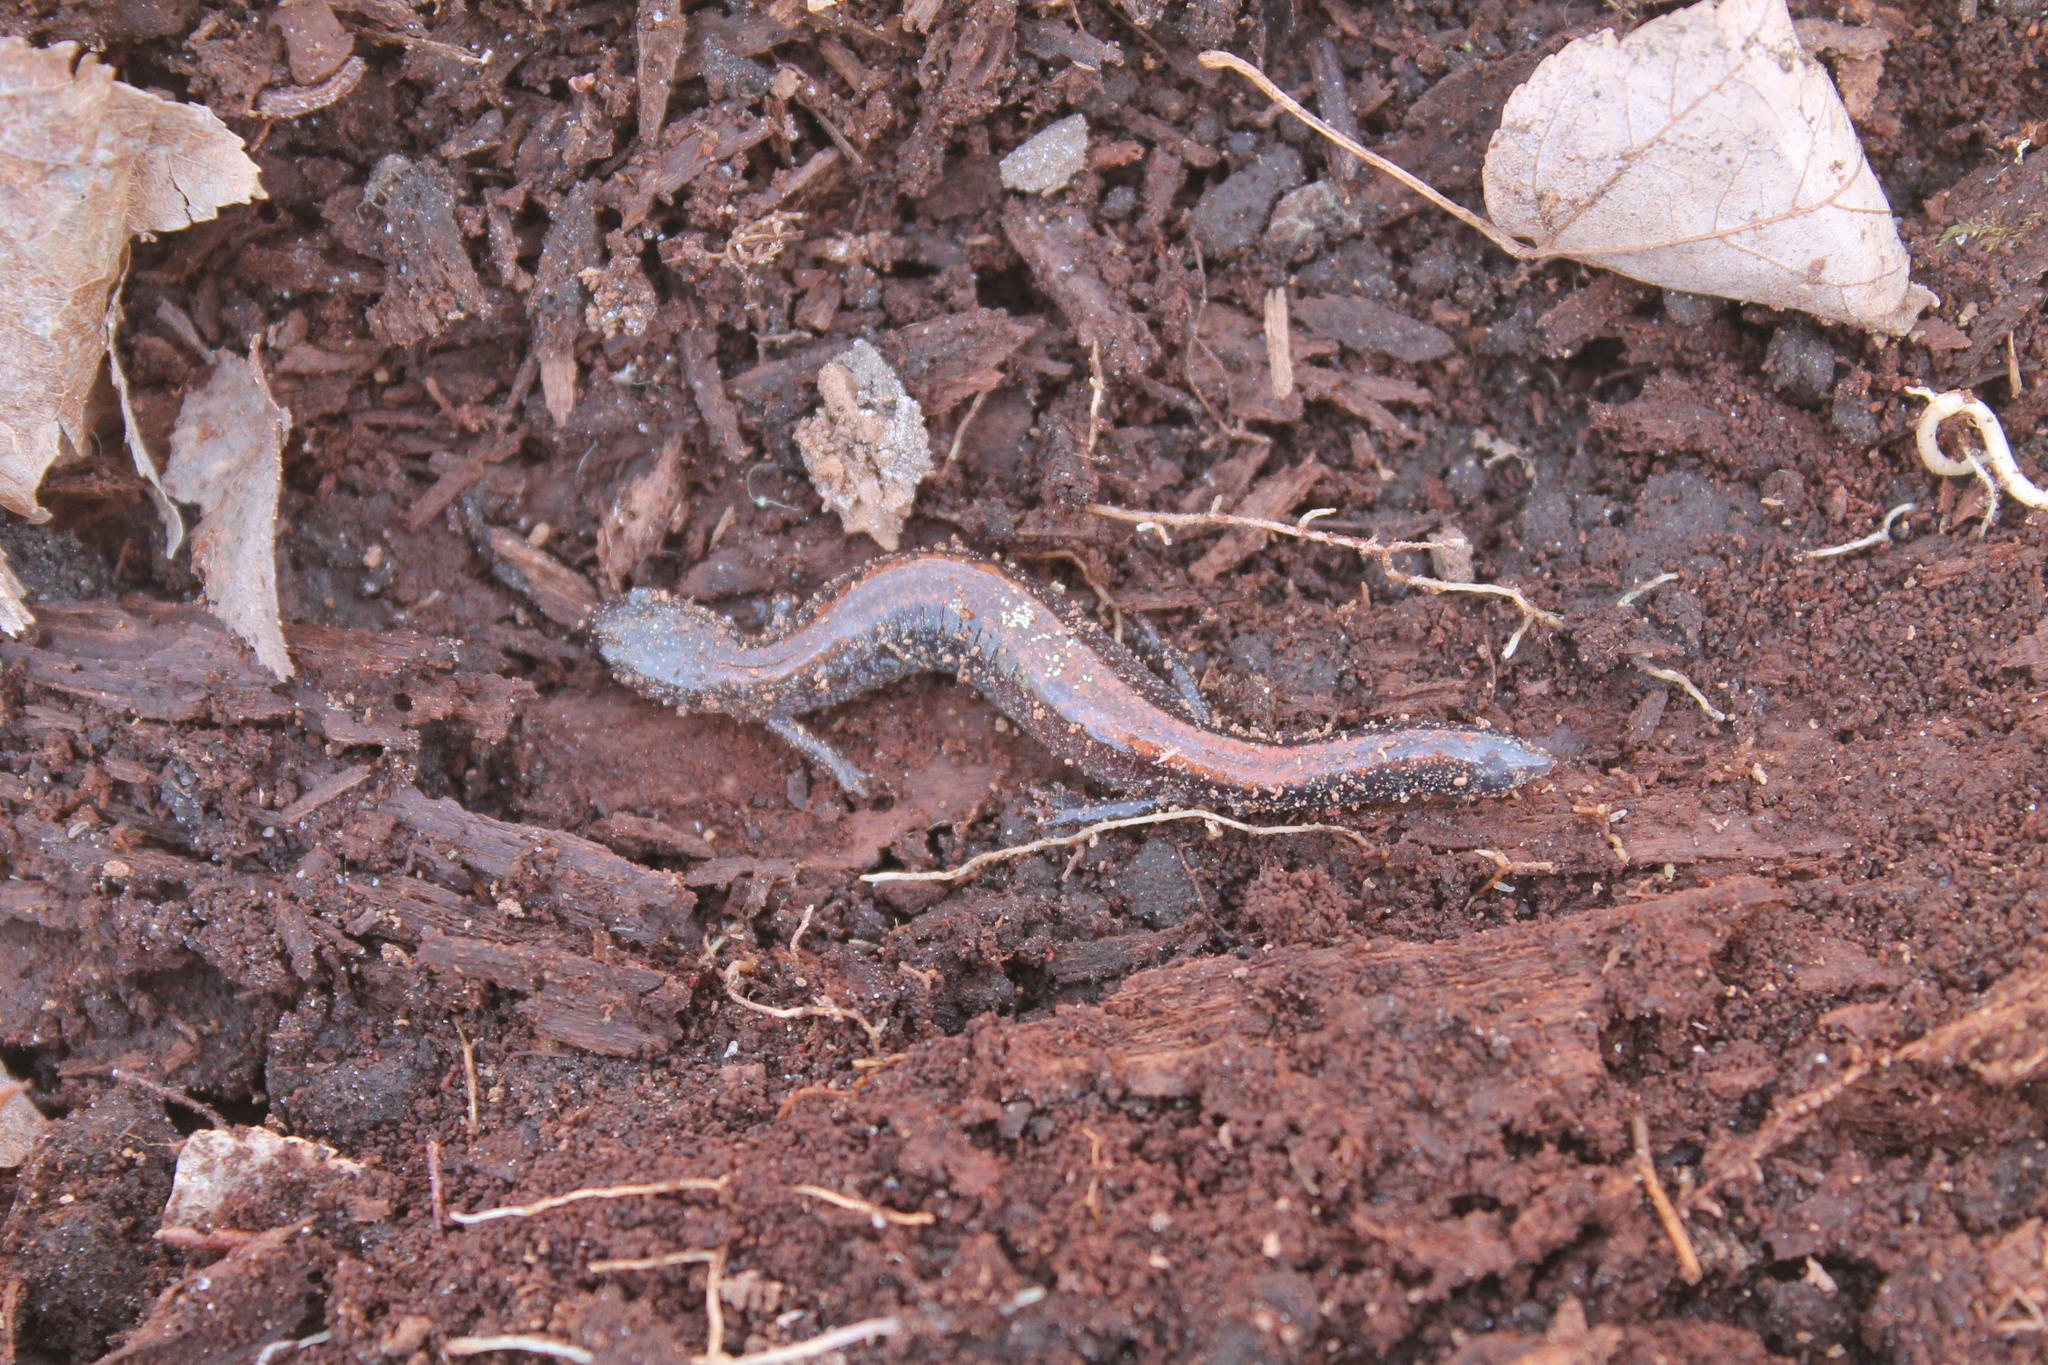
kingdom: Animalia
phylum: Chordata
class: Amphibia
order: Caudata
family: Plethodontidae
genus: Plethodon
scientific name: Plethodon cinereus
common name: Redback salamander
